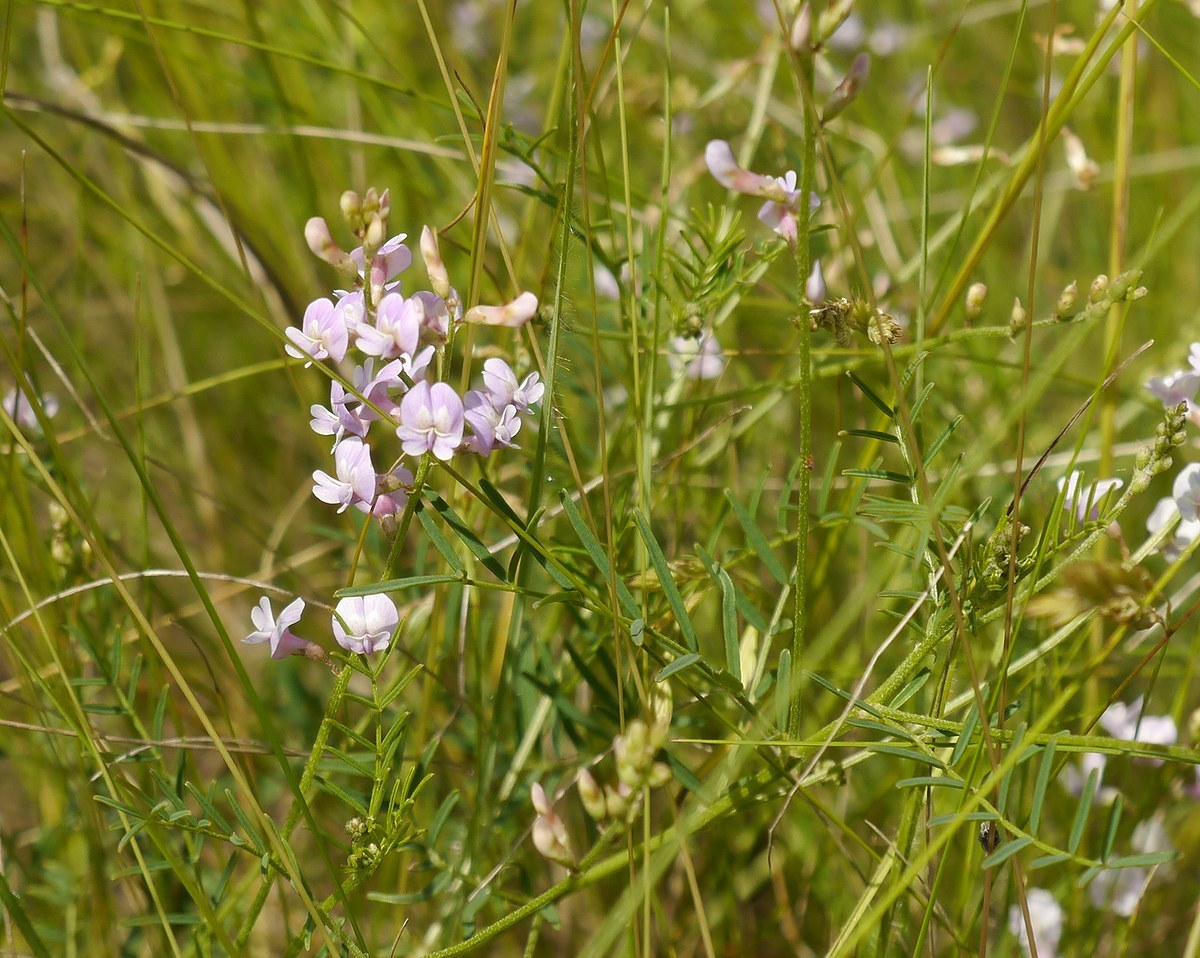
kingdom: Plantae
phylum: Tracheophyta
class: Magnoliopsida
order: Fabales
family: Fabaceae
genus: Astragalus
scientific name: Astragalus austriacus
